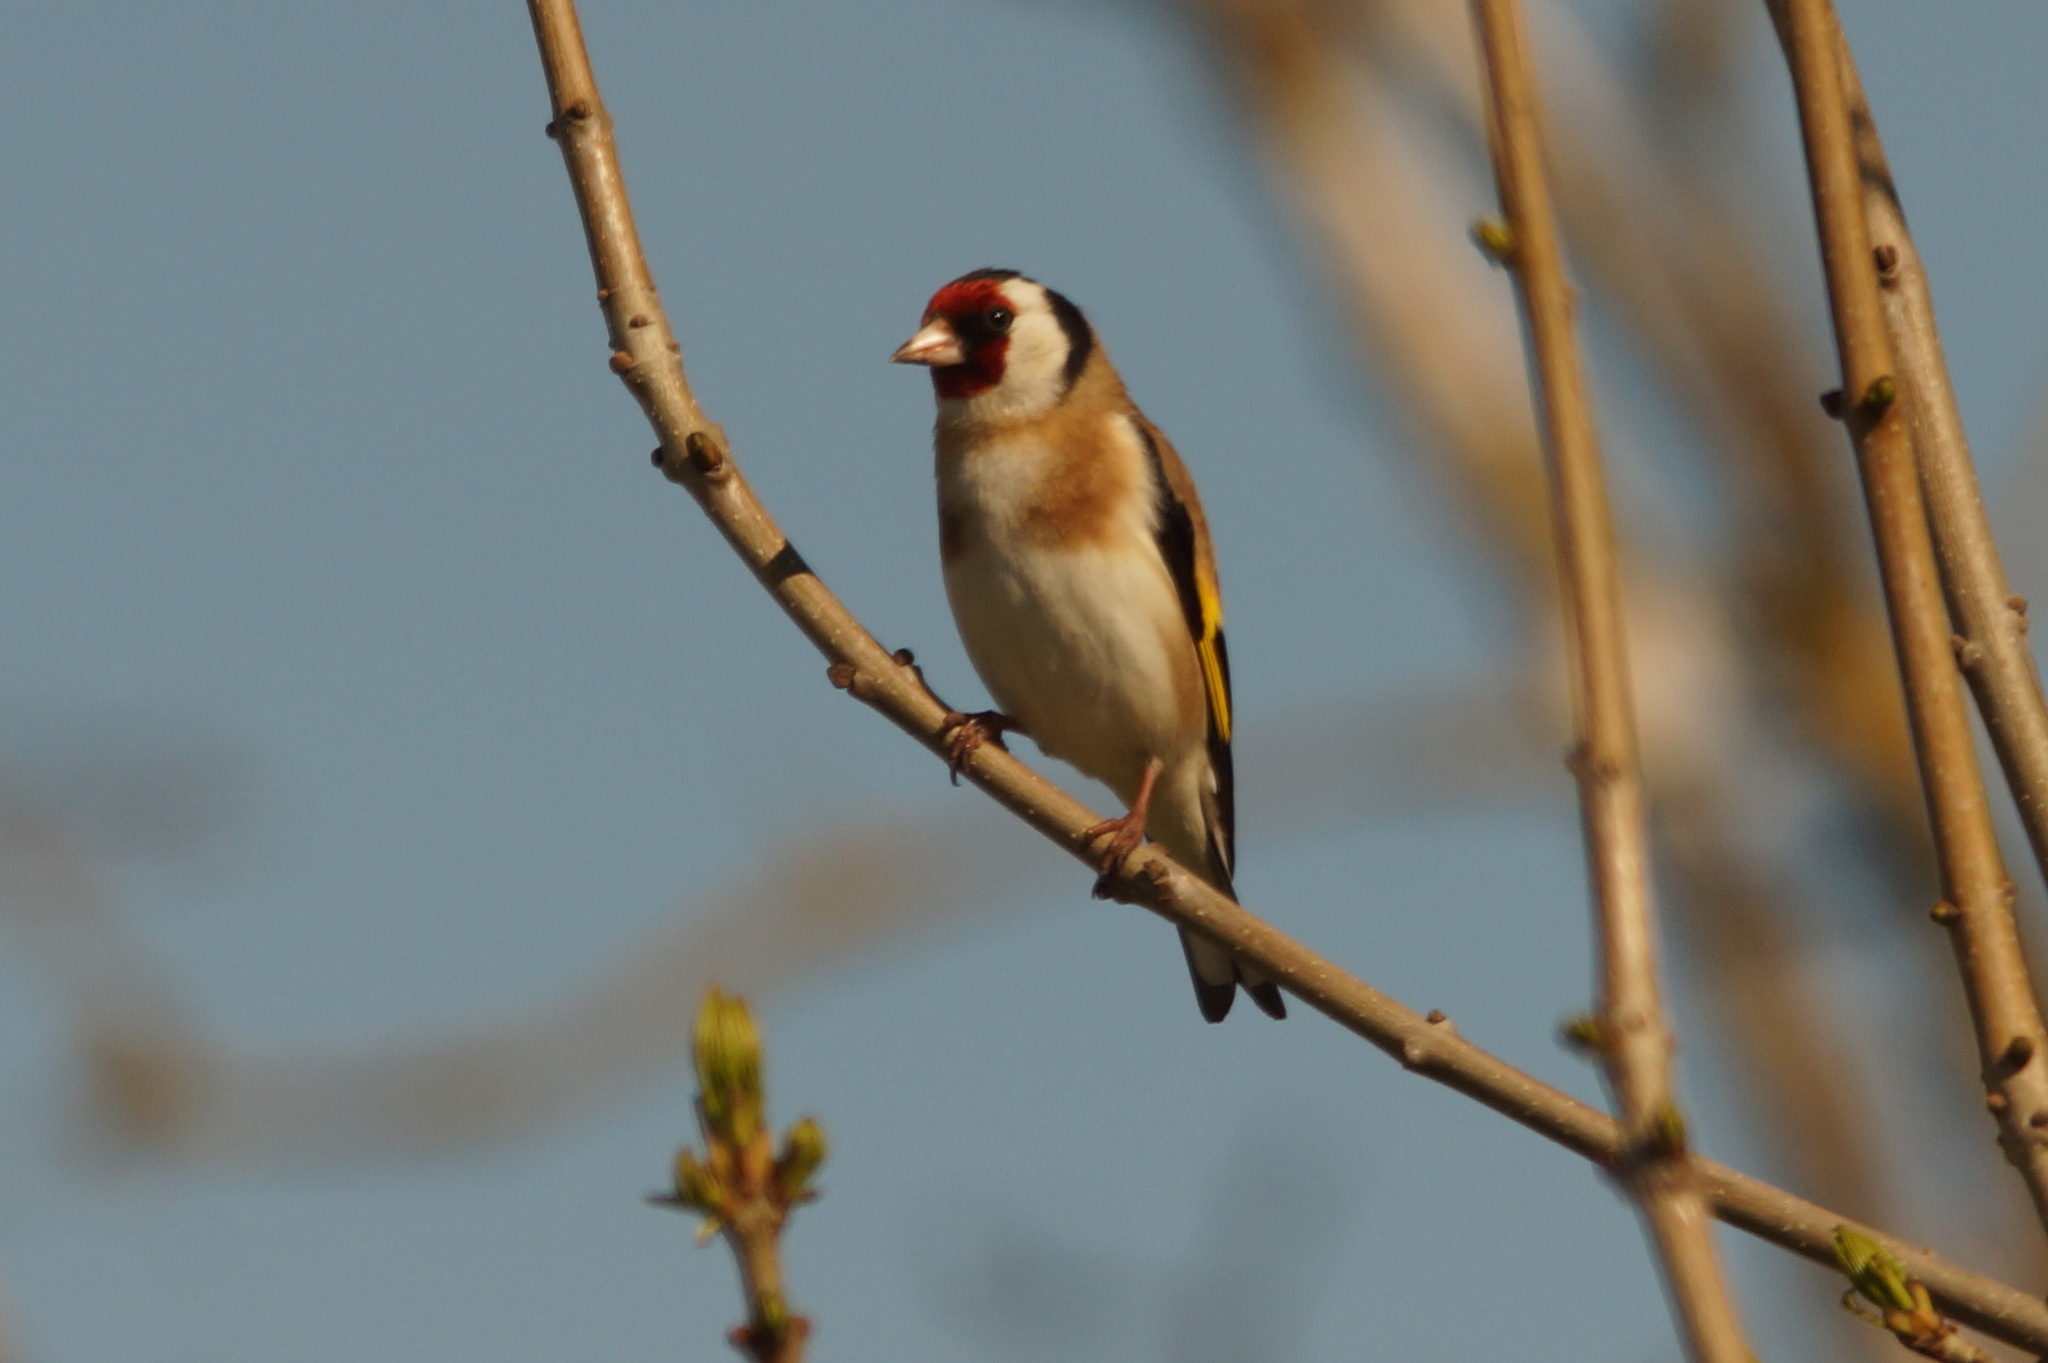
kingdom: Animalia
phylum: Chordata
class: Aves
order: Passeriformes
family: Fringillidae
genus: Carduelis
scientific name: Carduelis carduelis
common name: European goldfinch
